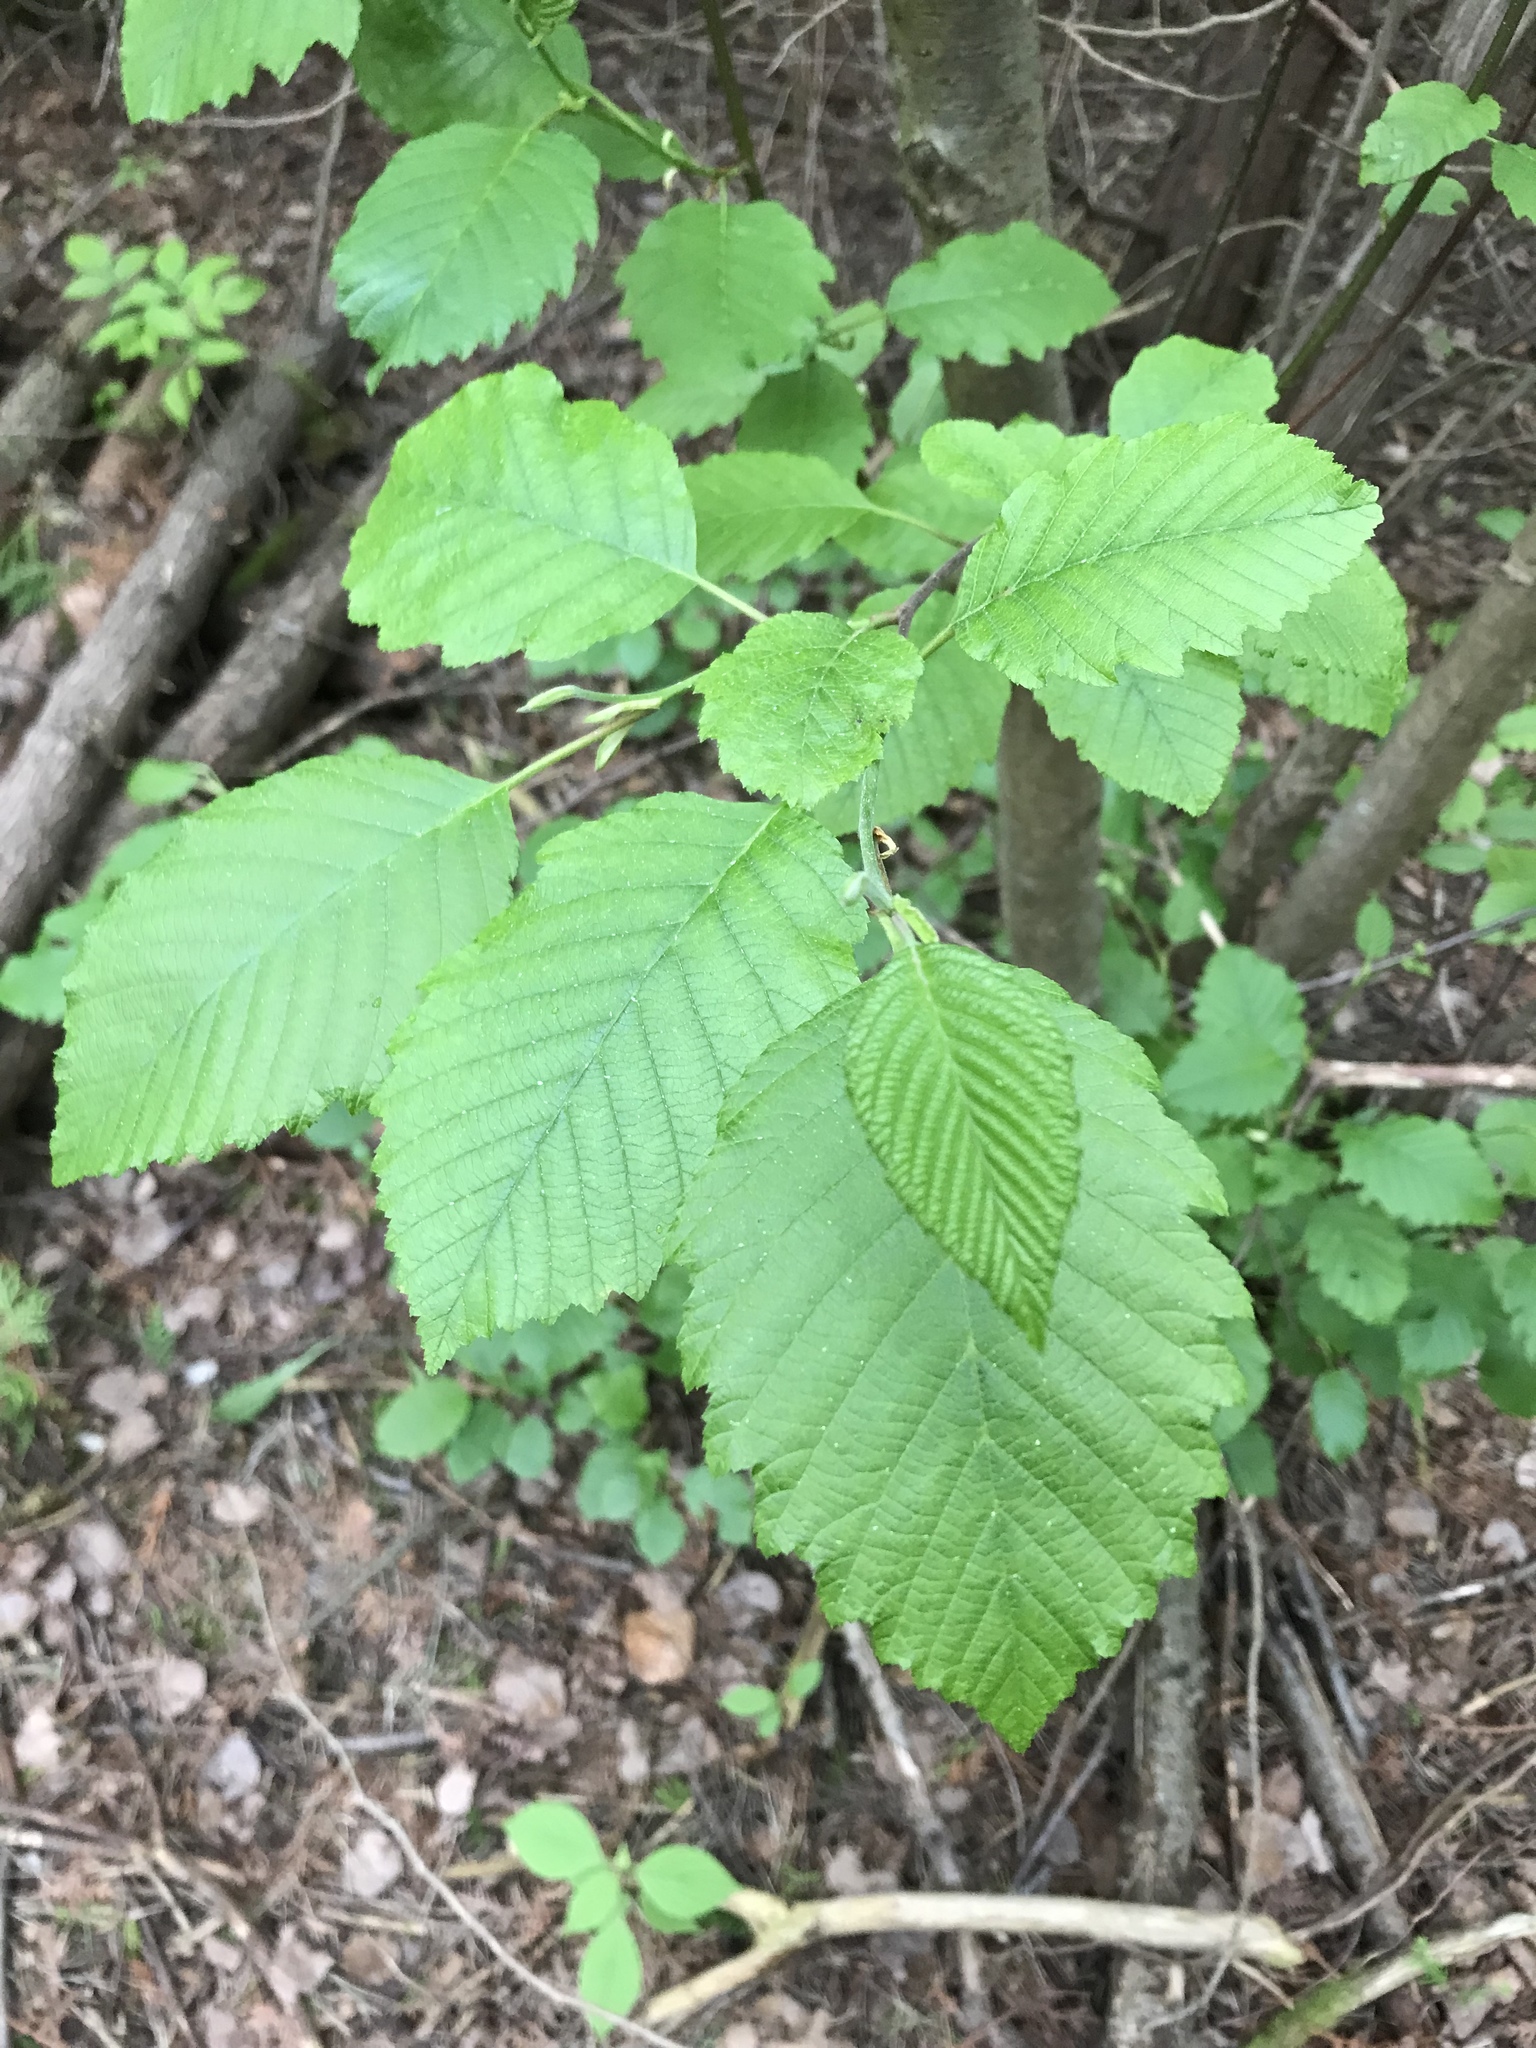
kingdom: Plantae
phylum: Tracheophyta
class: Magnoliopsida
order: Fagales
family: Betulaceae
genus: Alnus
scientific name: Alnus incana
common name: Grey alder
